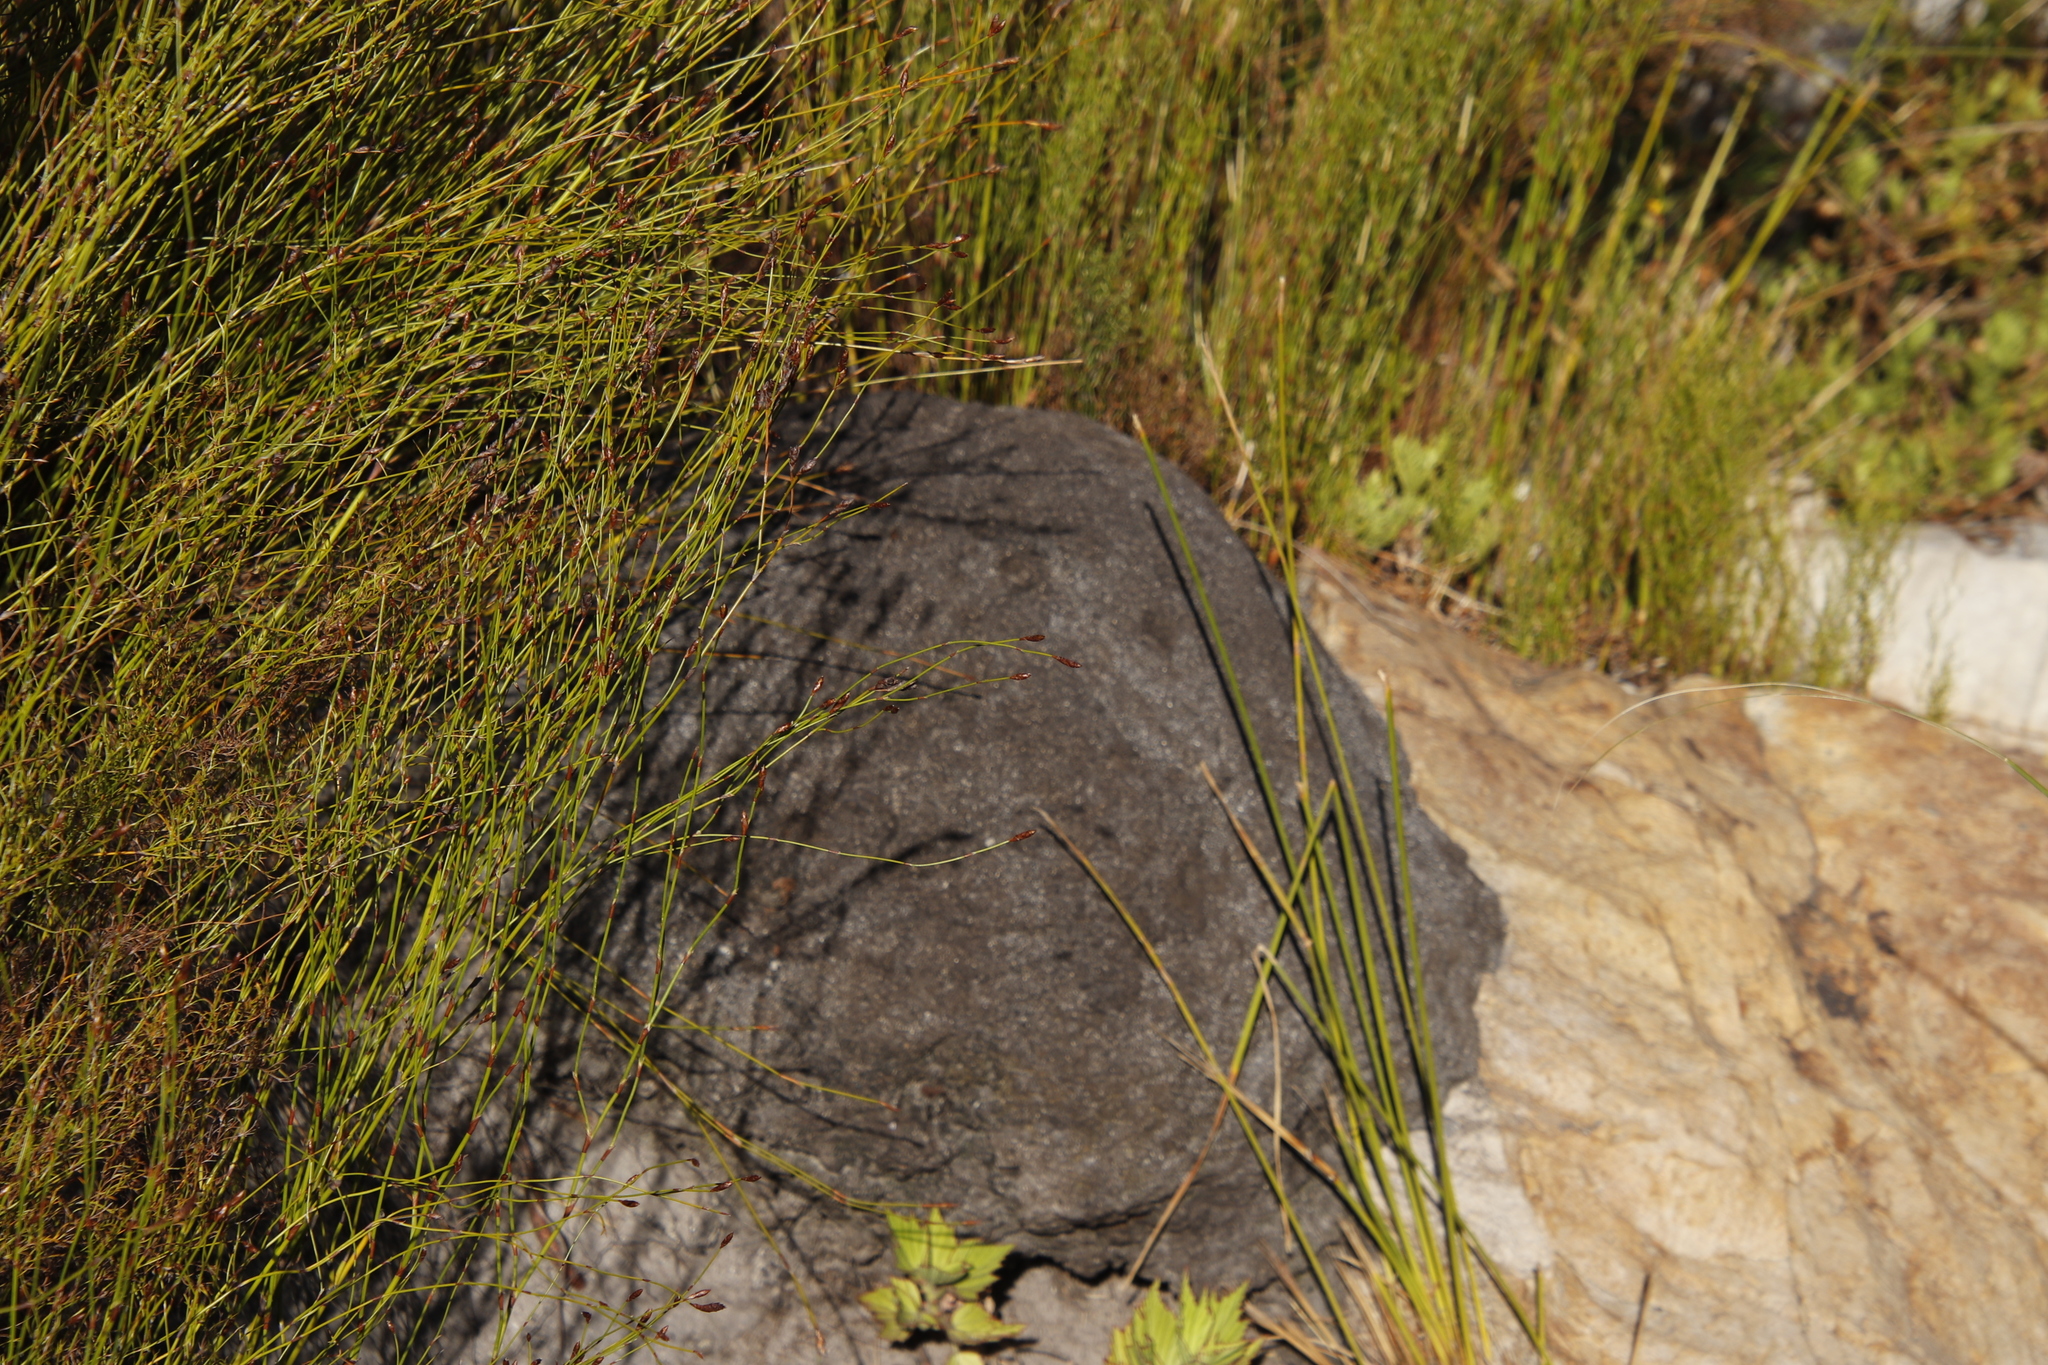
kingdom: Animalia
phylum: Arthropoda
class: Insecta
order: Blattodea
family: Termitidae
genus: Amitermes
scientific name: Amitermes hastatus
